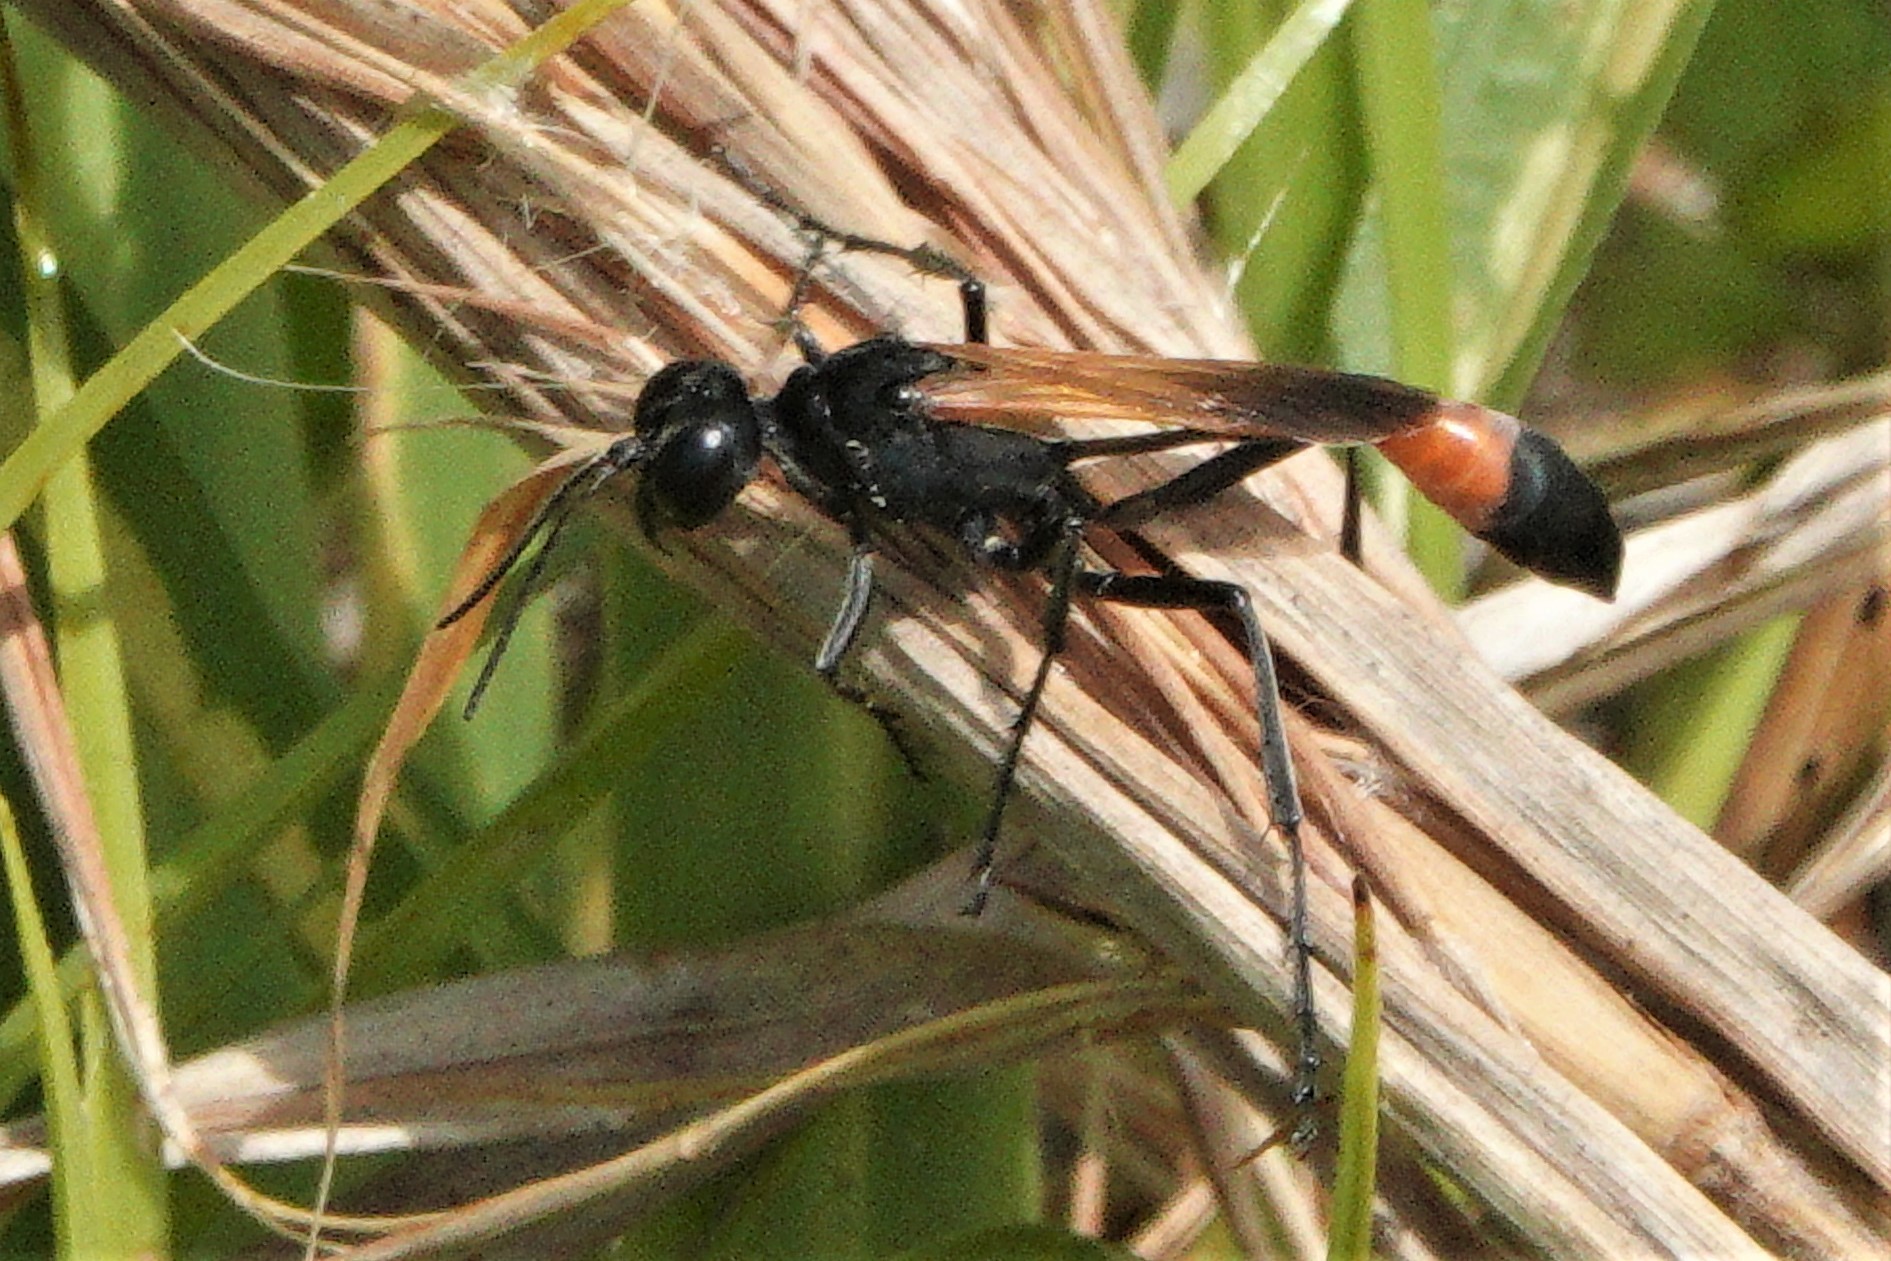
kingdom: Animalia
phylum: Arthropoda
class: Insecta
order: Hymenoptera
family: Sphecidae
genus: Ammophila
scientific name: Ammophila pictipennis
